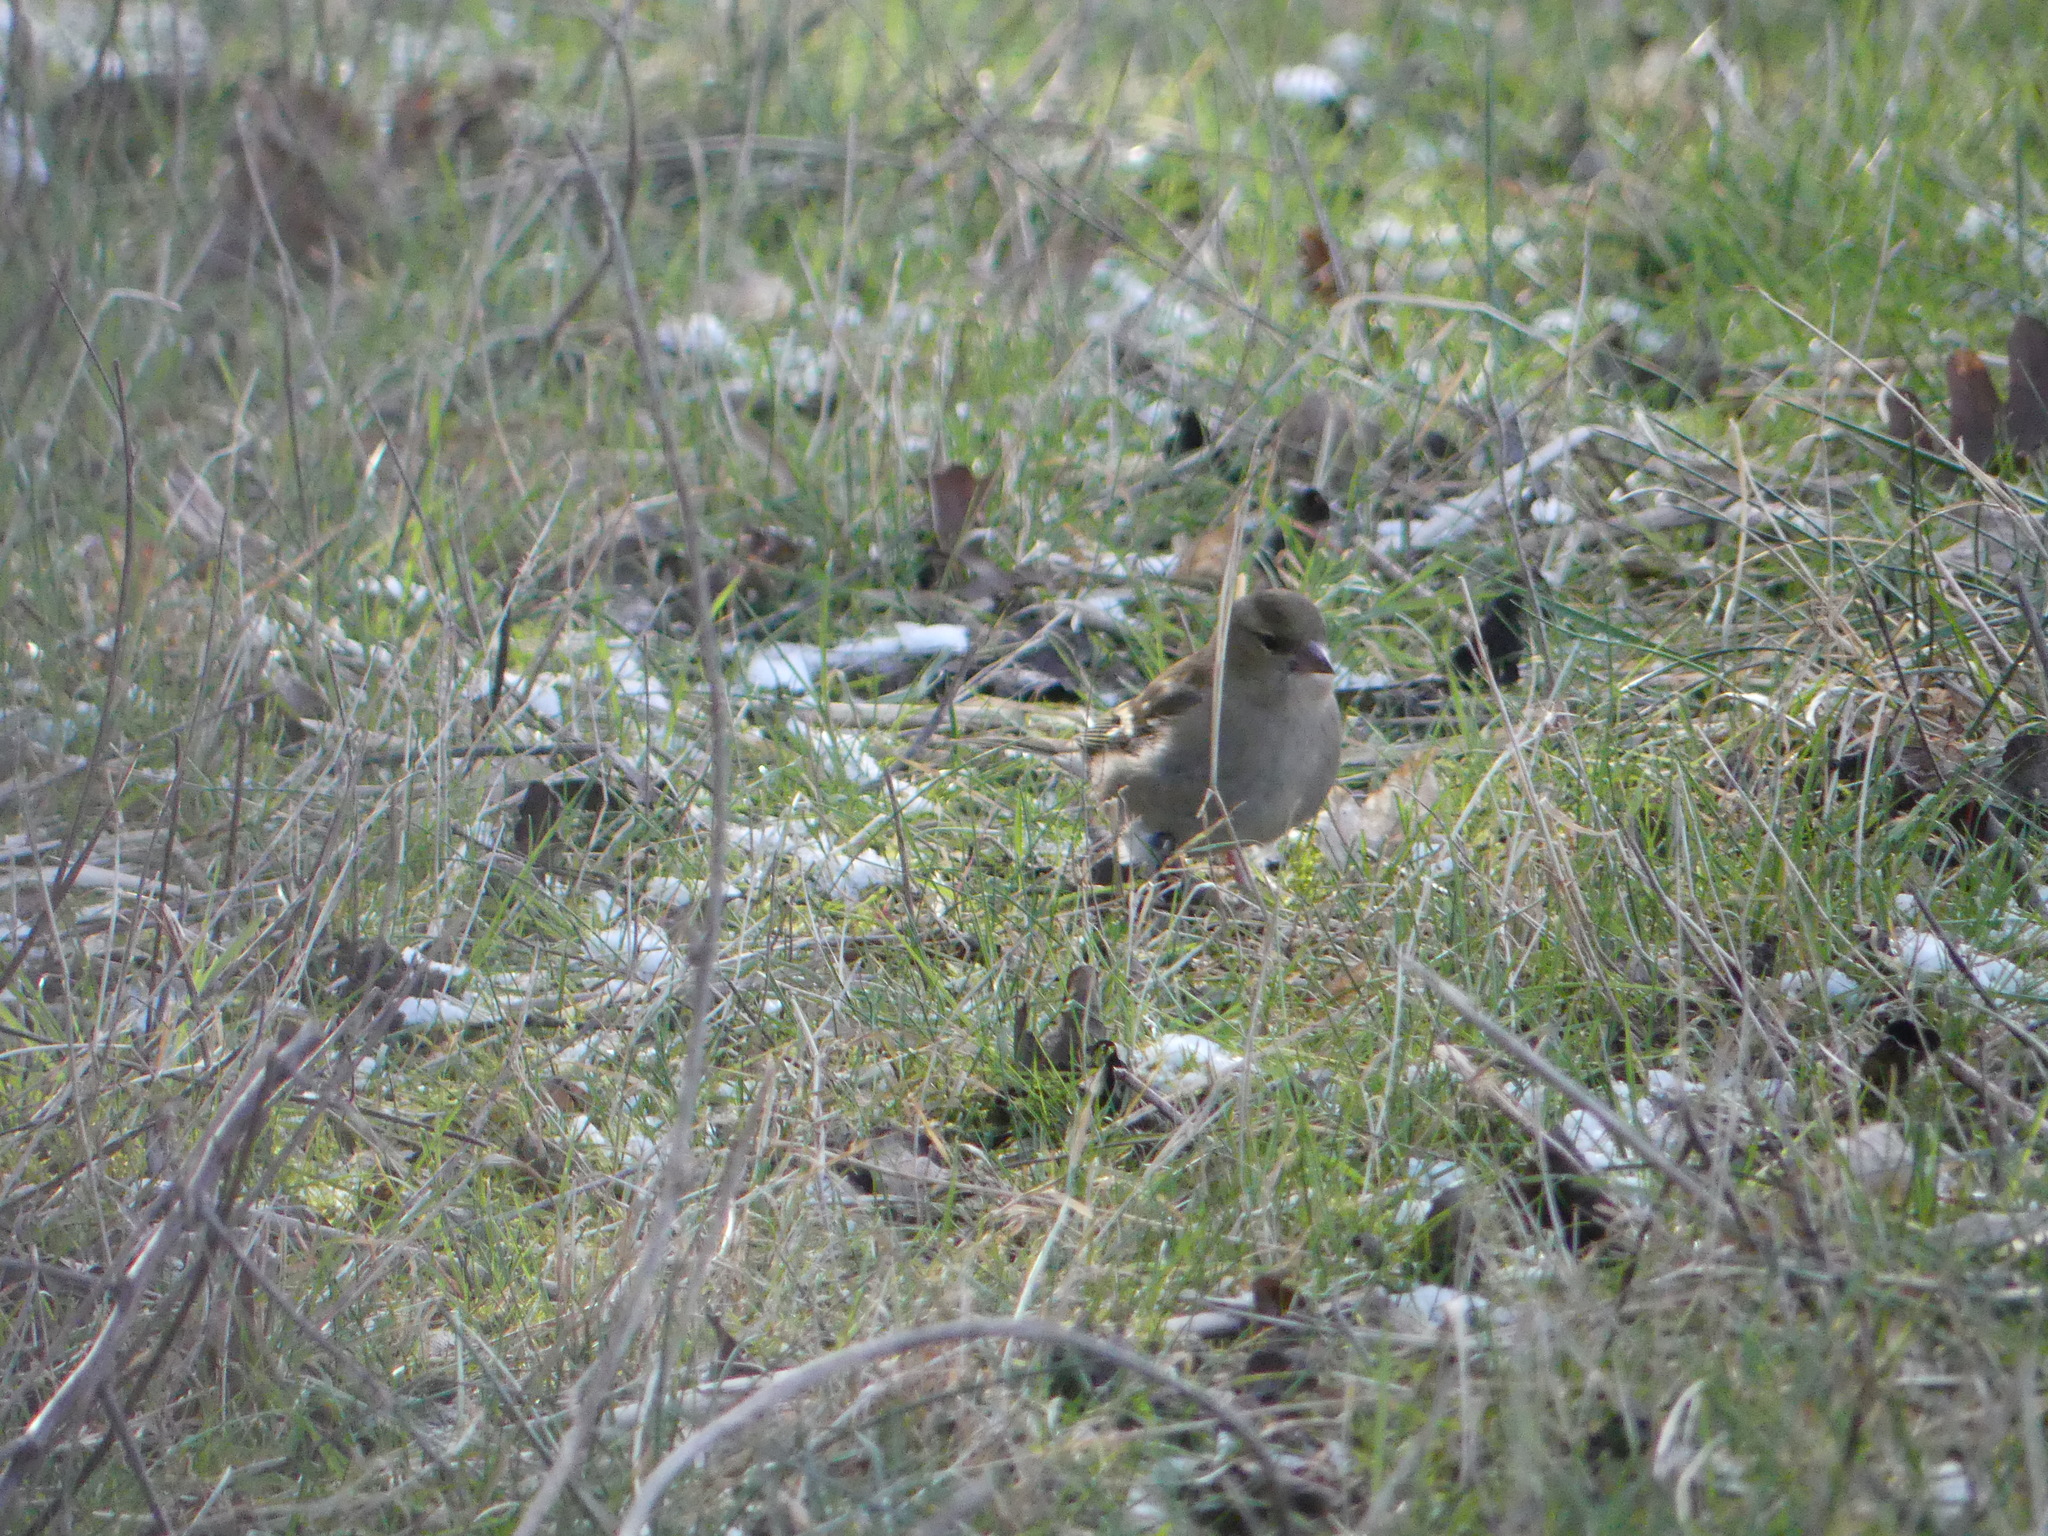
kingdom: Animalia
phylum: Chordata
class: Aves
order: Passeriformes
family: Fringillidae
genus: Fringilla
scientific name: Fringilla coelebs
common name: Common chaffinch
